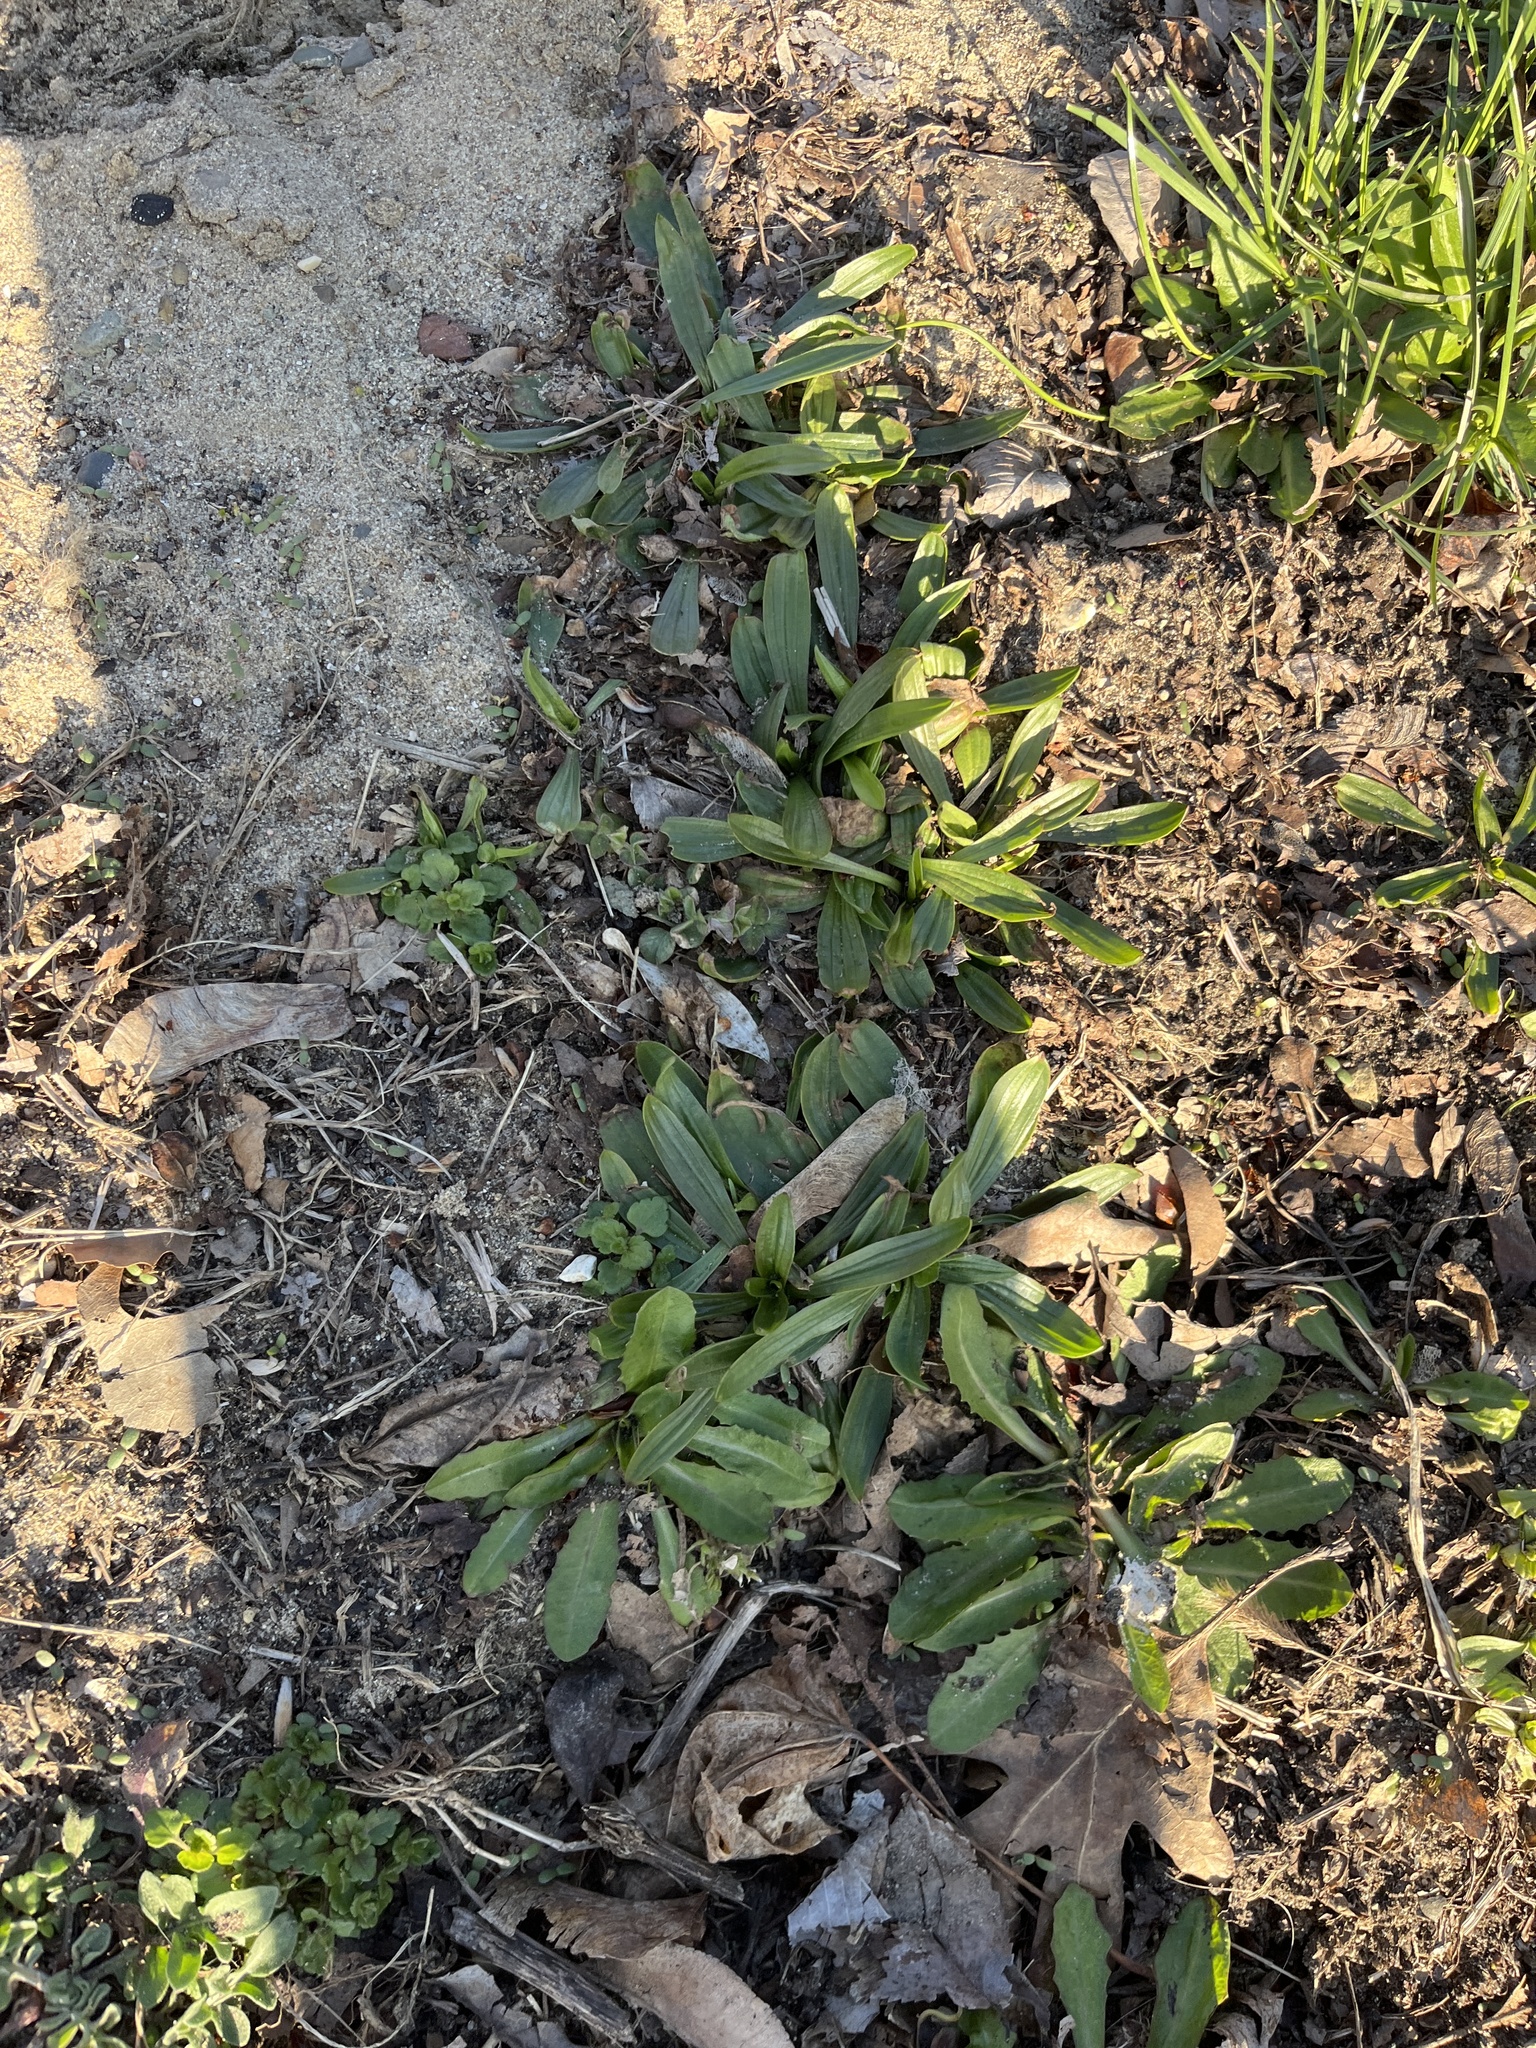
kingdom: Plantae
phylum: Tracheophyta
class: Magnoliopsida
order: Lamiales
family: Plantaginaceae
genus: Plantago
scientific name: Plantago lanceolata
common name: Ribwort plantain
